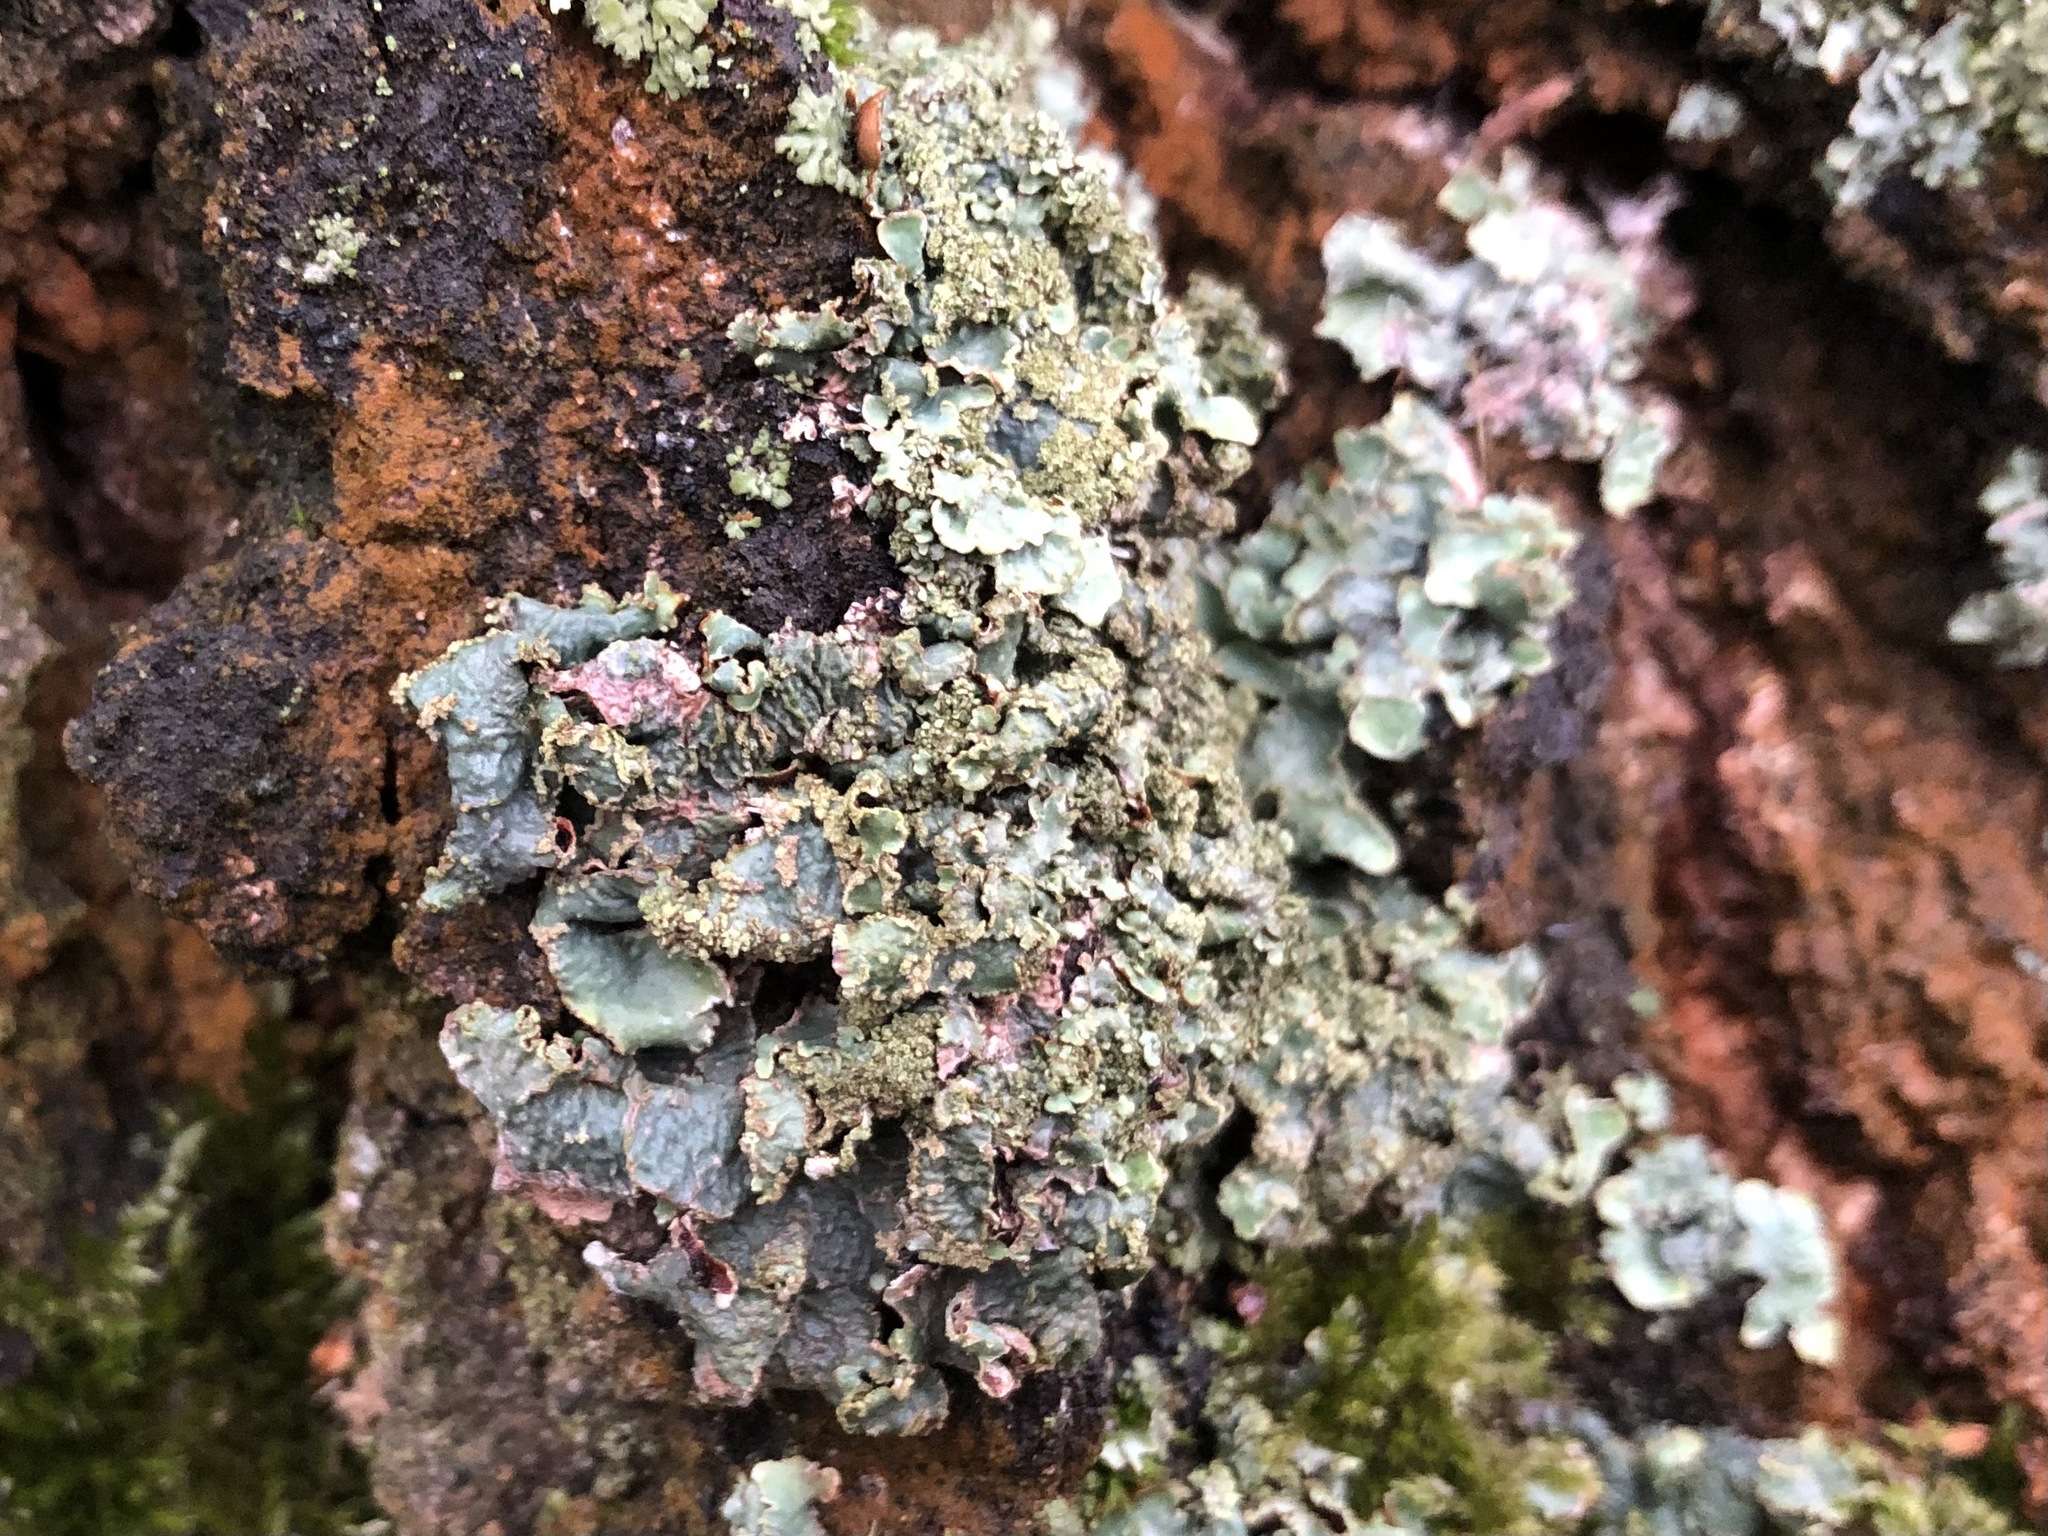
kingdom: Fungi
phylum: Ascomycota
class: Lecanoromycetes
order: Lecanorales
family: Parmeliaceae
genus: Parmelia
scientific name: Parmelia sulcata
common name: Netted shield lichen
